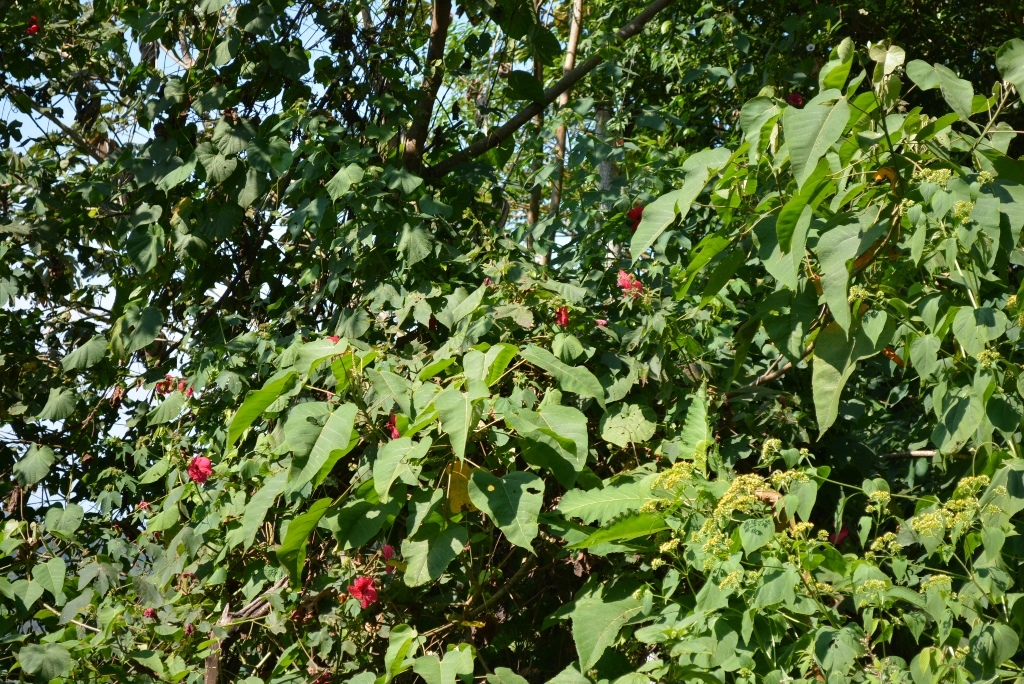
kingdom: Plantae
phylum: Tracheophyta
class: Magnoliopsida
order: Malvales
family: Malvaceae
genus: Hibiscus
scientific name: Hibiscus uncinellus
